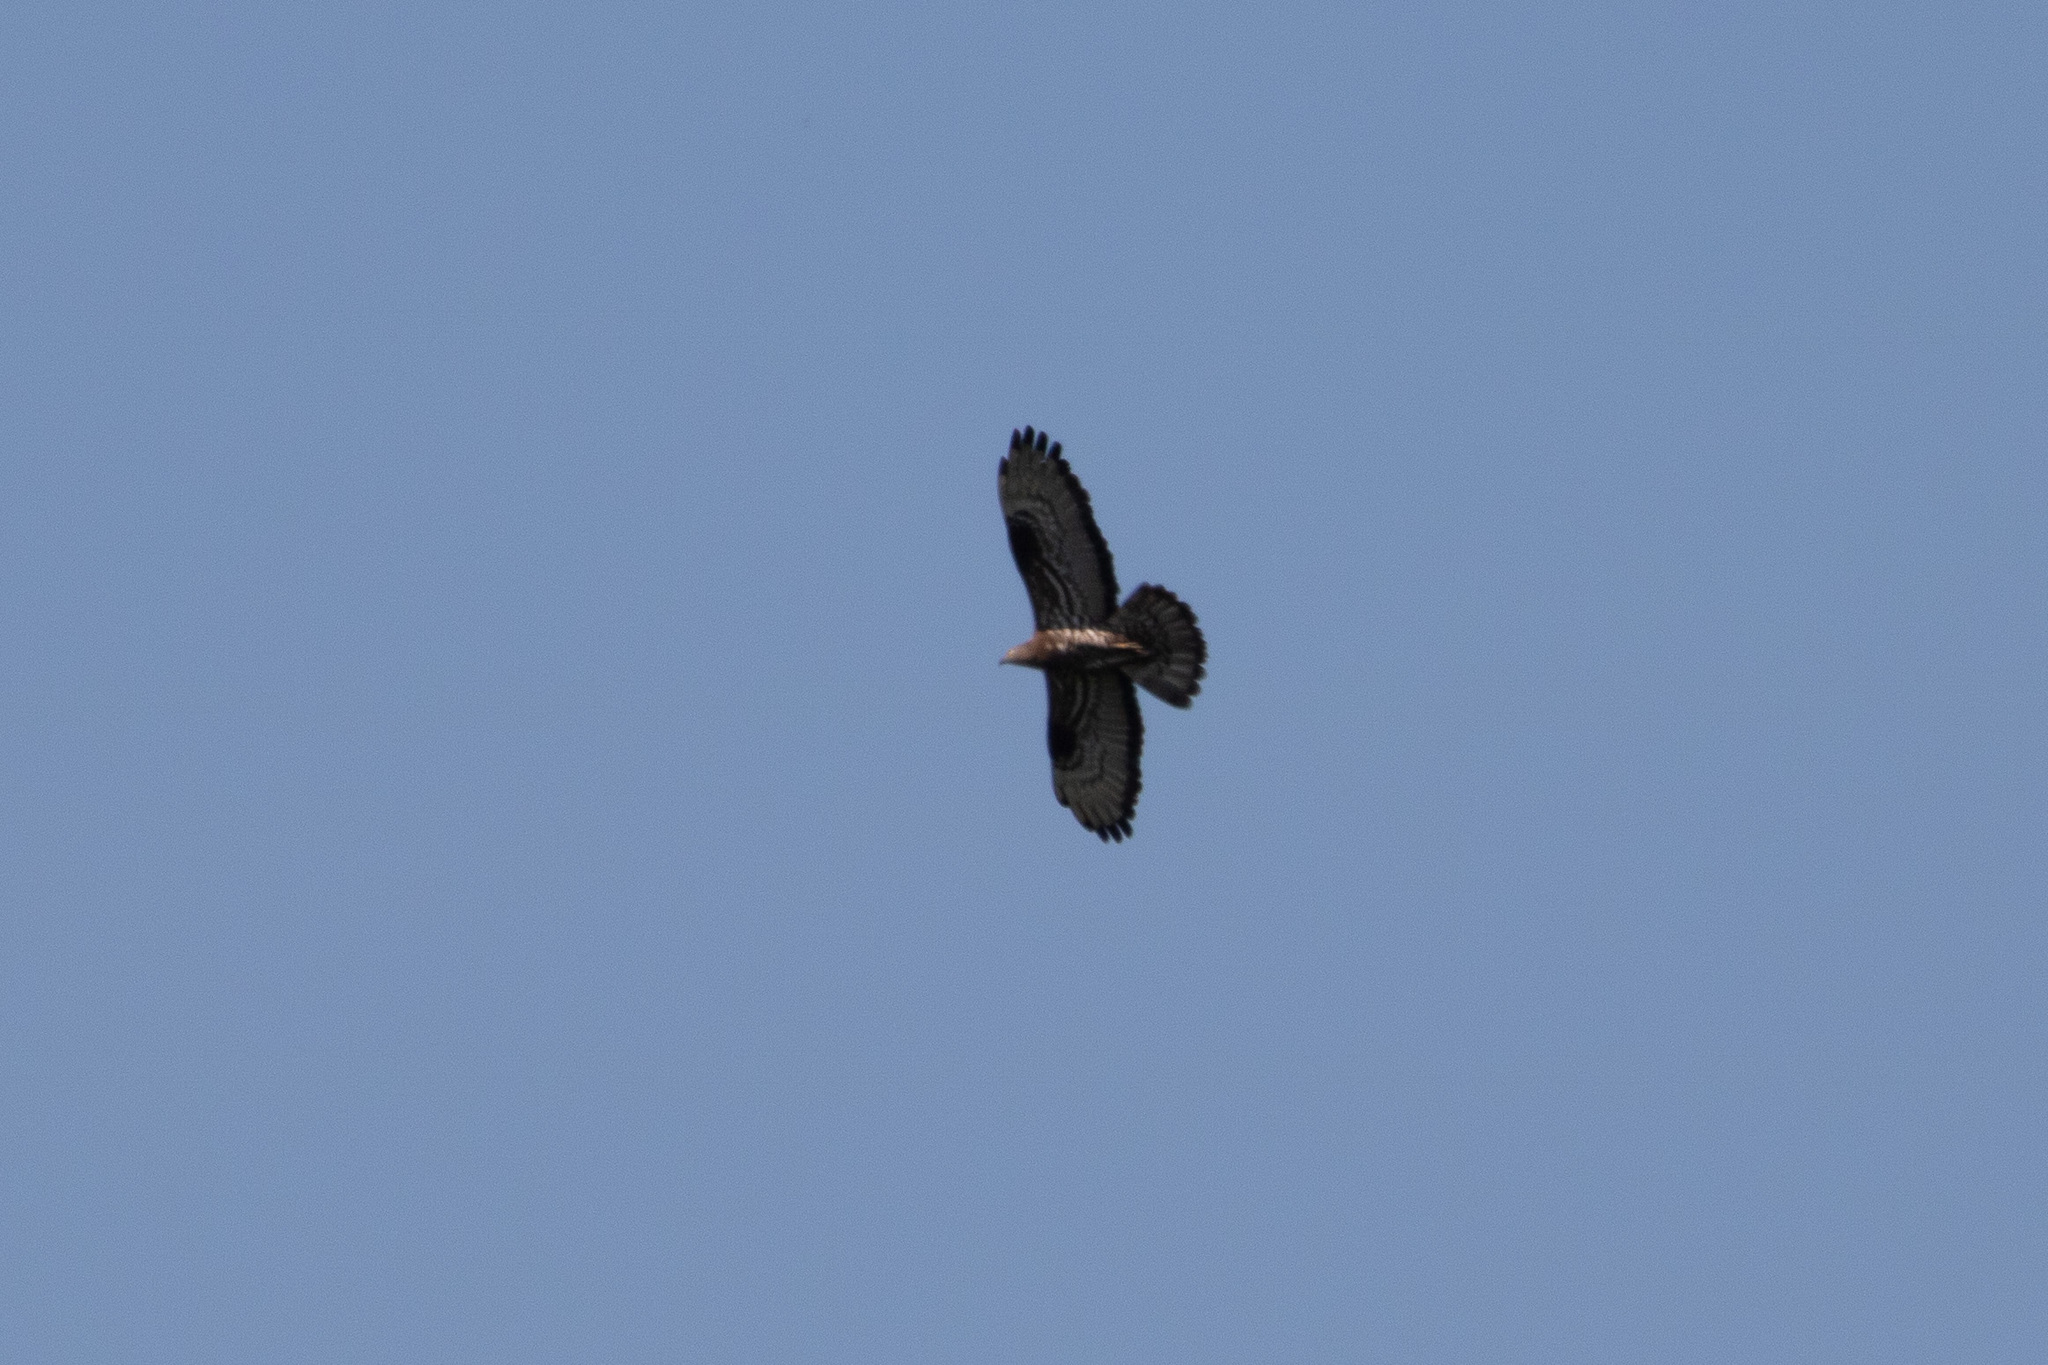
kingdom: Animalia
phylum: Chordata
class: Aves
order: Accipitriformes
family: Accipitridae
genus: Pernis
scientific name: Pernis apivorus
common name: European honey buzzard
